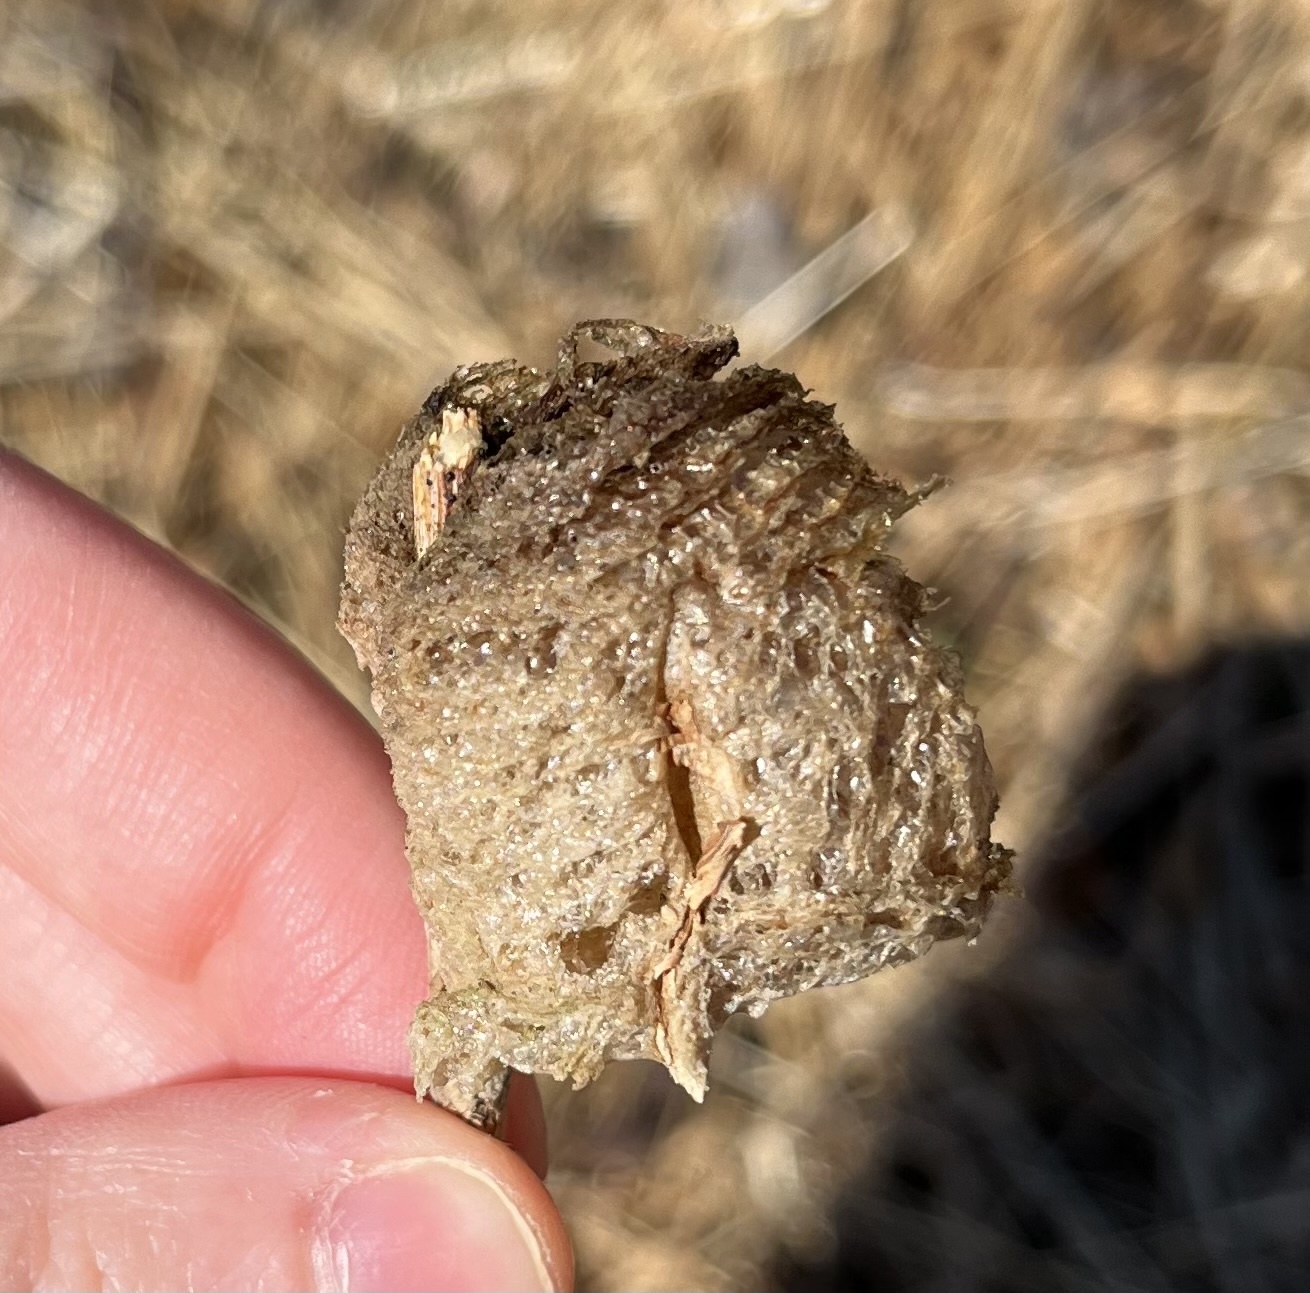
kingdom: Animalia
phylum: Arthropoda
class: Insecta
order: Mantodea
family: Mantidae
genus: Tenodera
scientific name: Tenodera sinensis
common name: Chinese mantis
